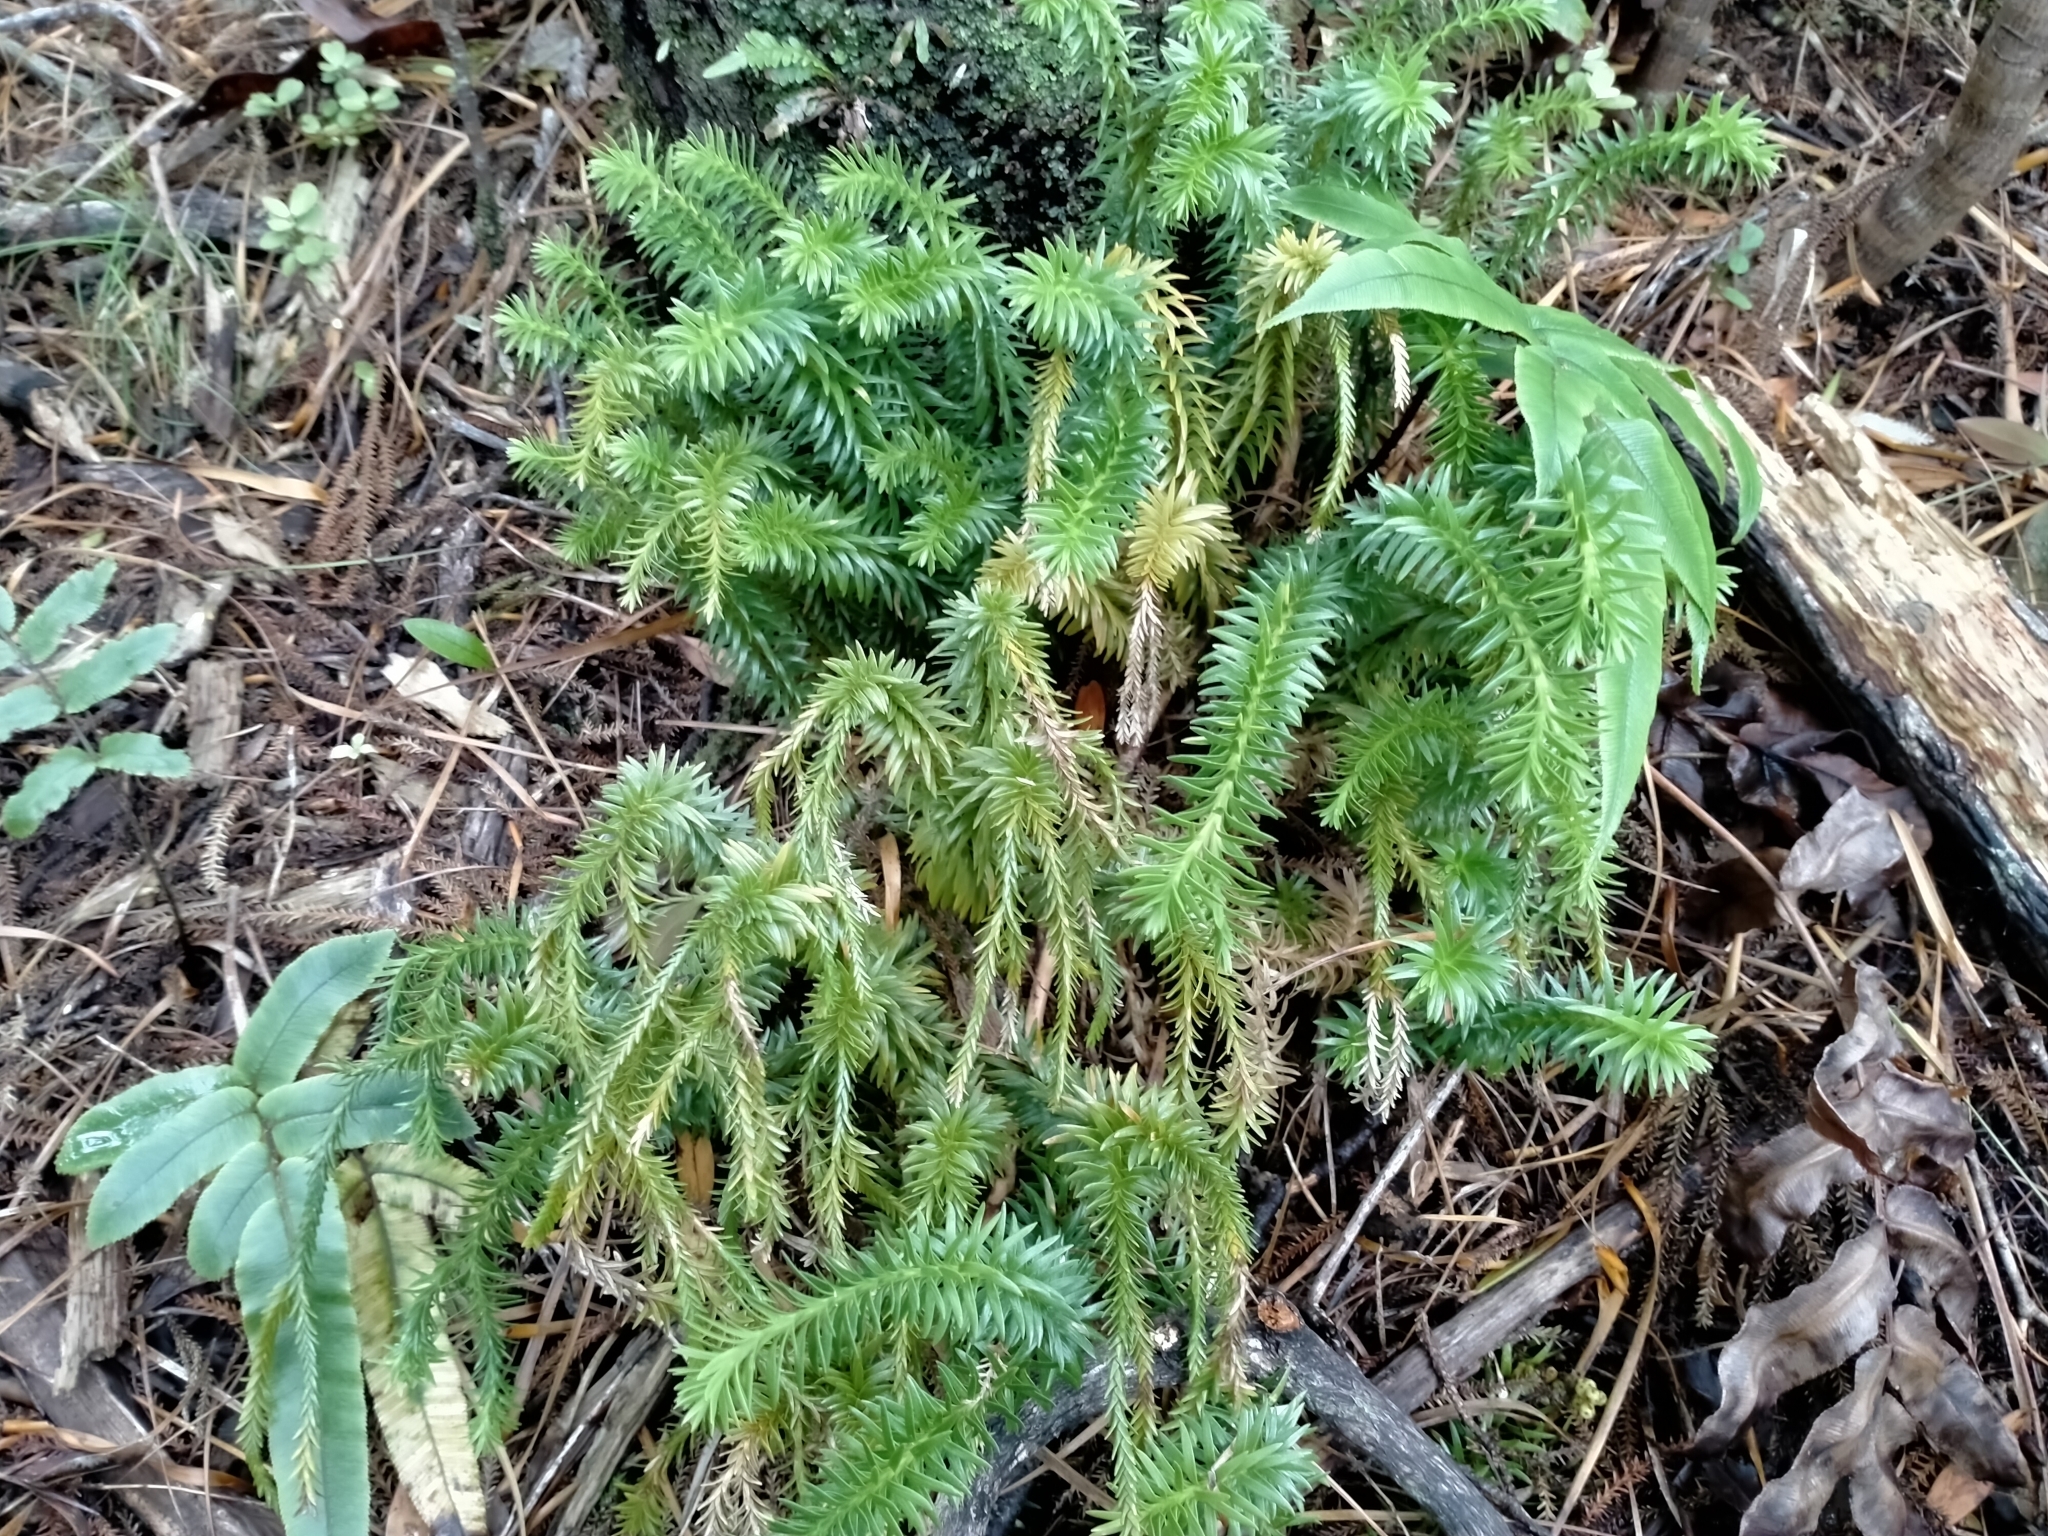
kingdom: Plantae
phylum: Tracheophyta
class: Lycopodiopsida
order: Lycopodiales
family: Lycopodiaceae
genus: Phlegmariurus
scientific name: Phlegmariurus varius
